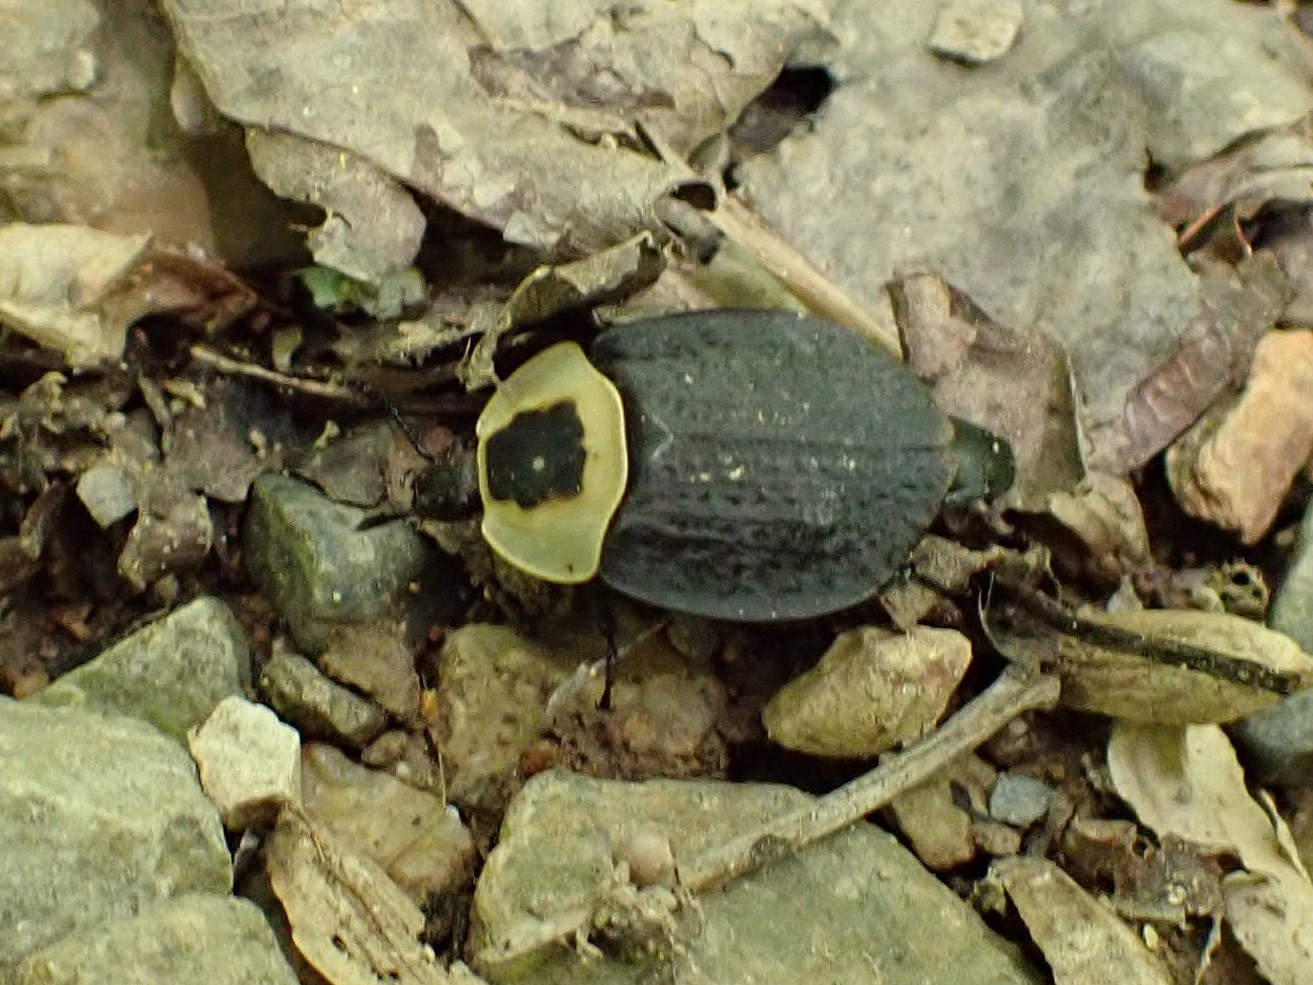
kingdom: Animalia
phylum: Arthropoda
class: Insecta
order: Coleoptera
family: Staphylinidae
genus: Necrophila
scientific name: Necrophila americana
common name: American carrion beetle
